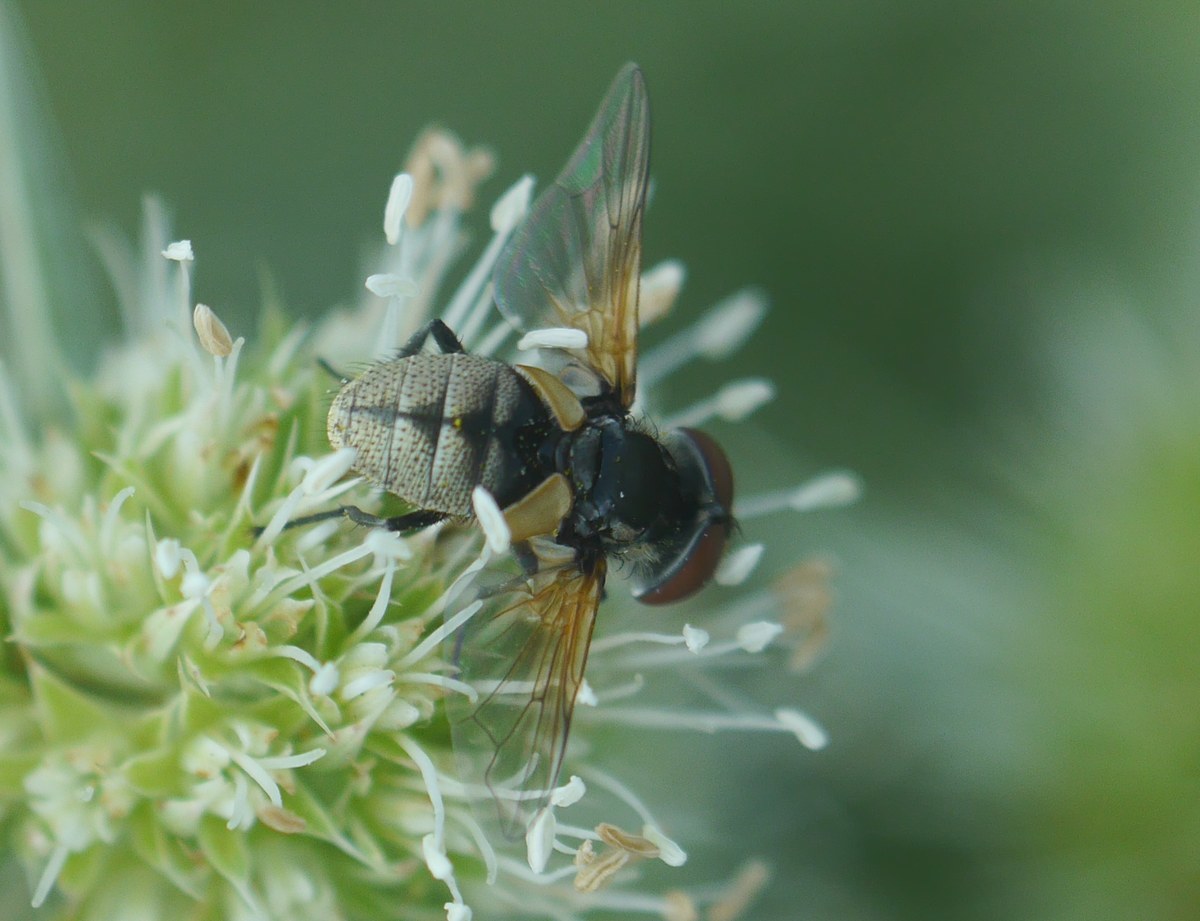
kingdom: Animalia
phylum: Arthropoda
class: Insecta
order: Diptera
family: Tachinidae
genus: Elomya
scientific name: Elomya lateralis
